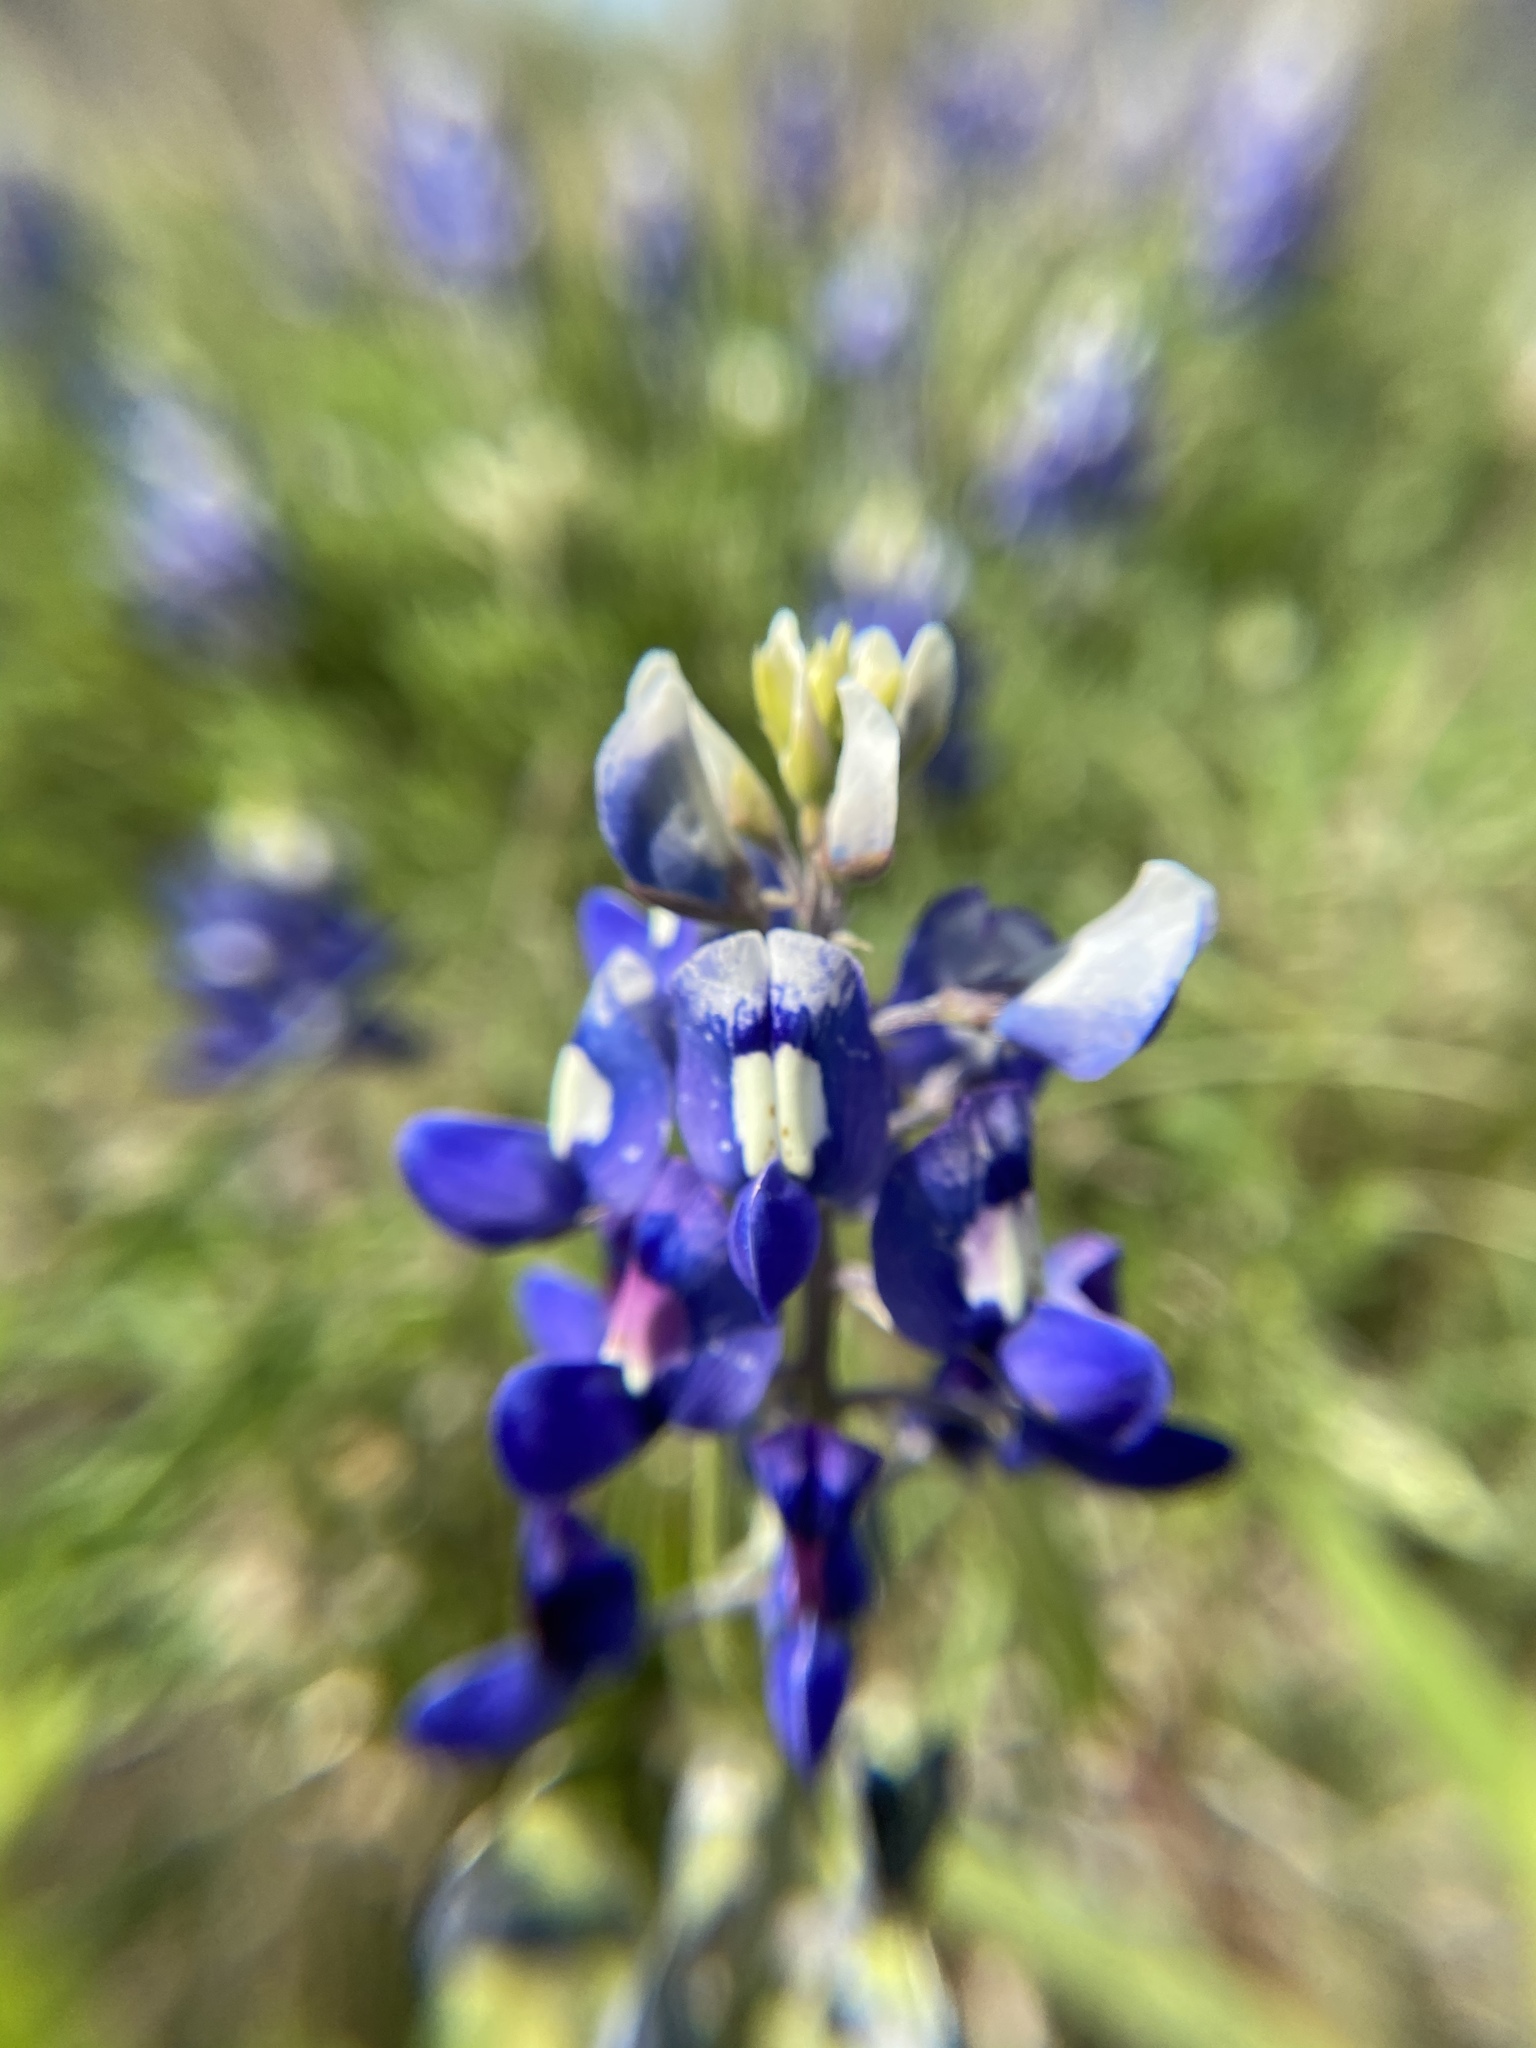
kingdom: Plantae
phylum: Tracheophyta
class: Magnoliopsida
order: Fabales
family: Fabaceae
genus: Lupinus
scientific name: Lupinus texensis
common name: Texas bluebonnet
